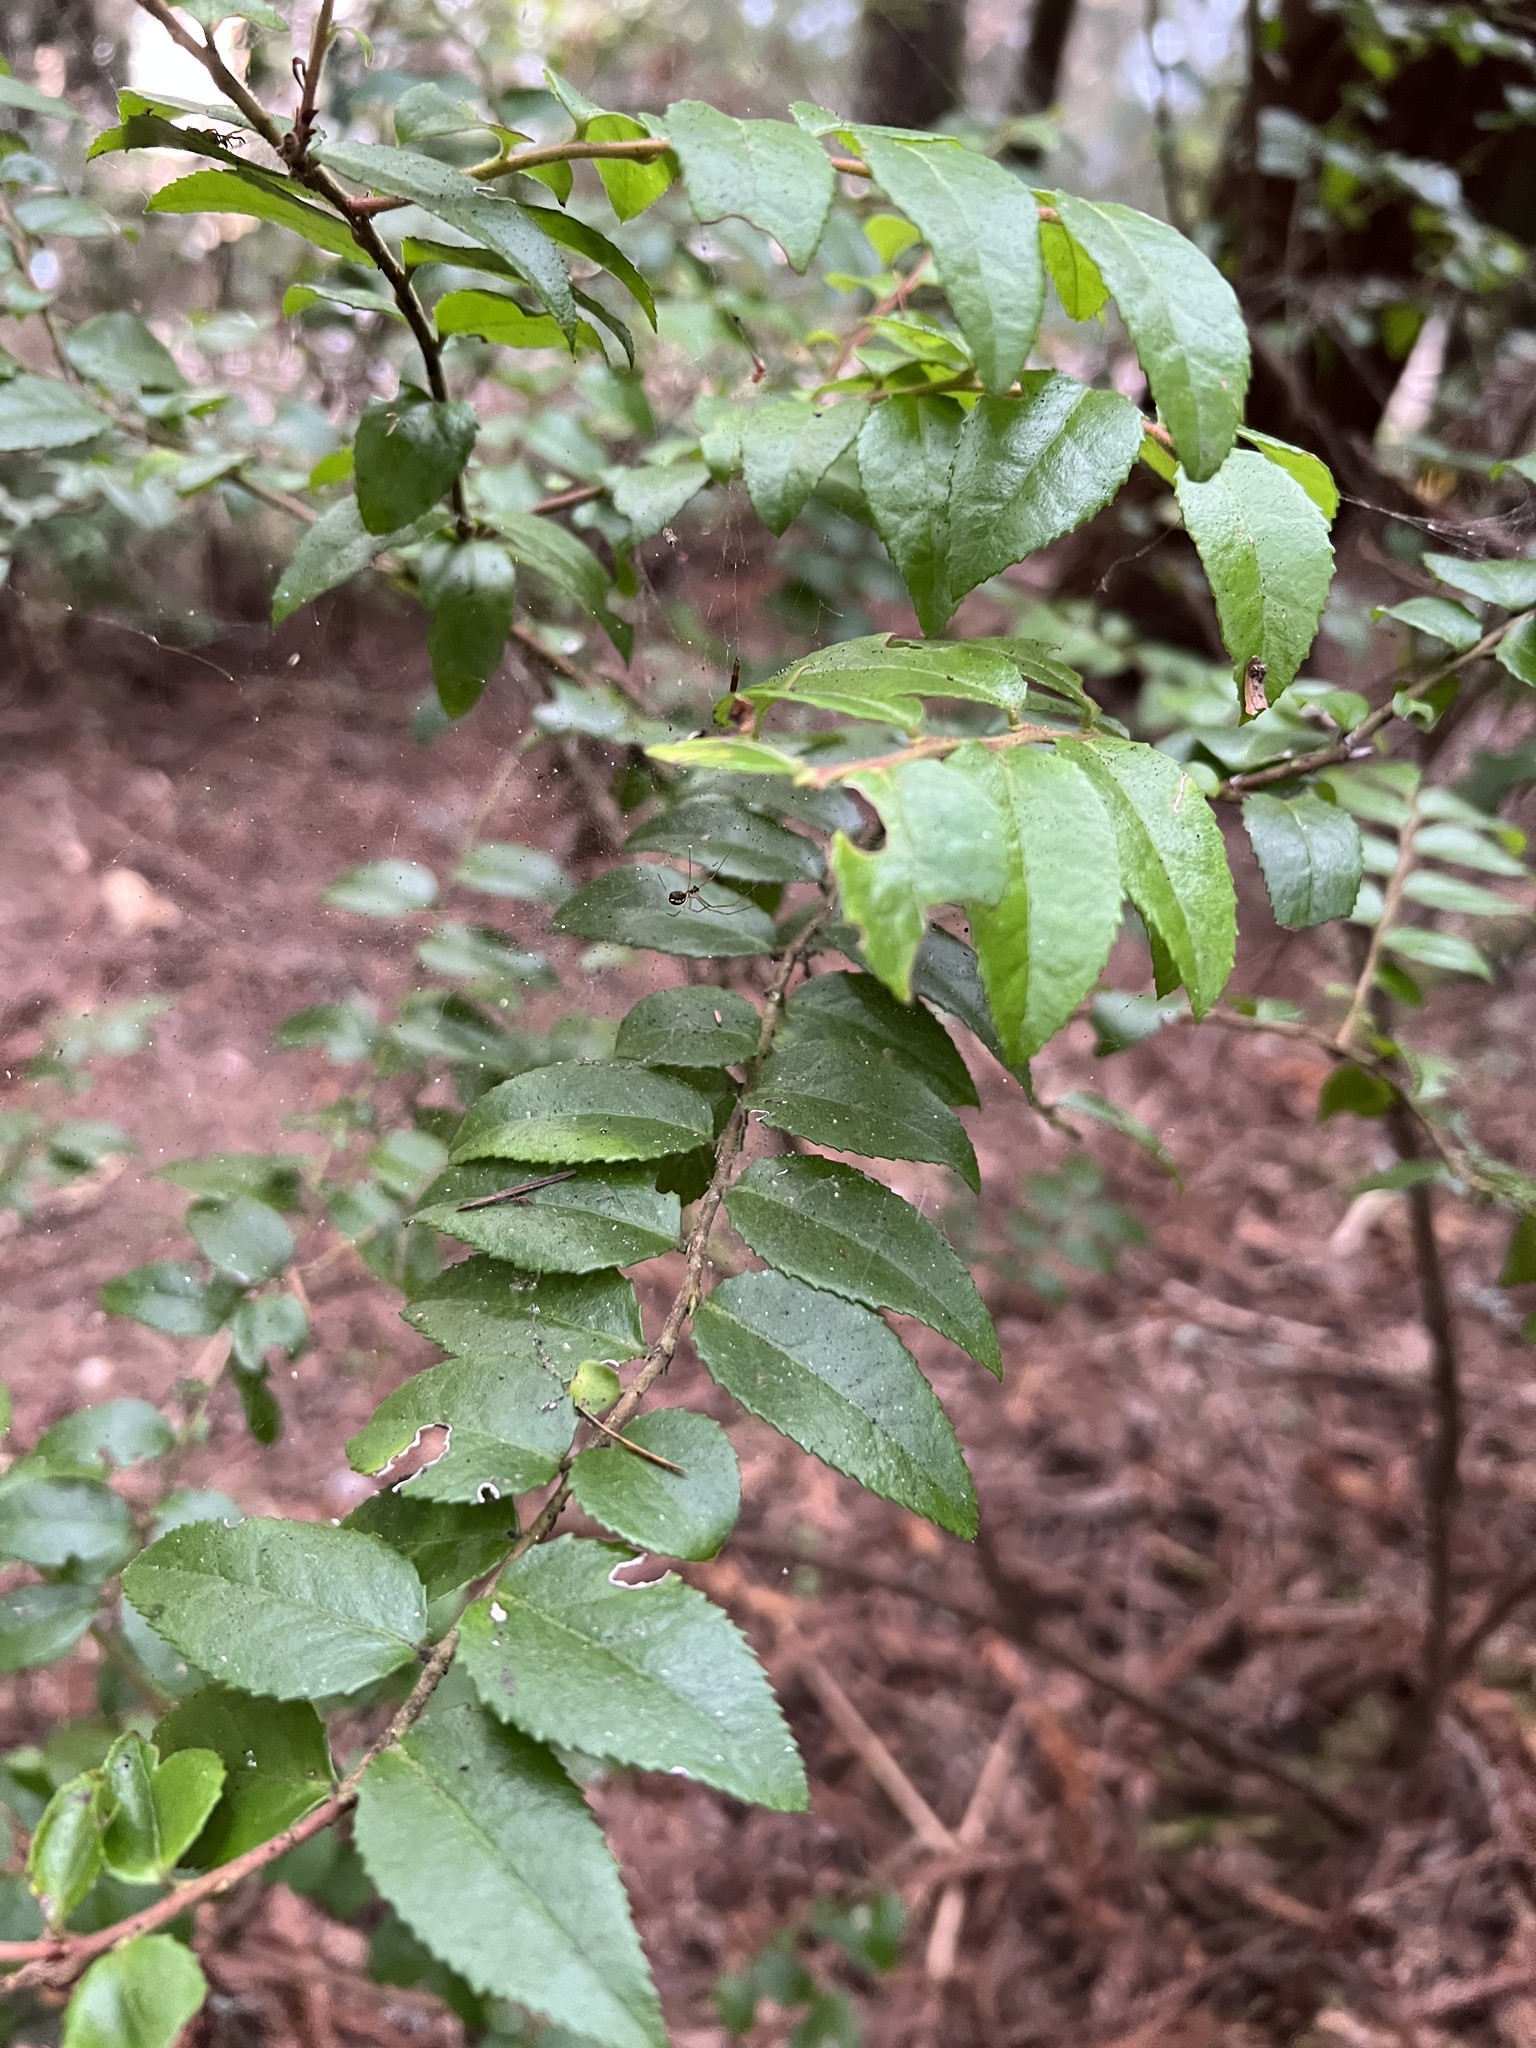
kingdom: Plantae
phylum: Tracheophyta
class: Magnoliopsida
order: Ericales
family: Ericaceae
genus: Vaccinium
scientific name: Vaccinium ovatum
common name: California-huckleberry
